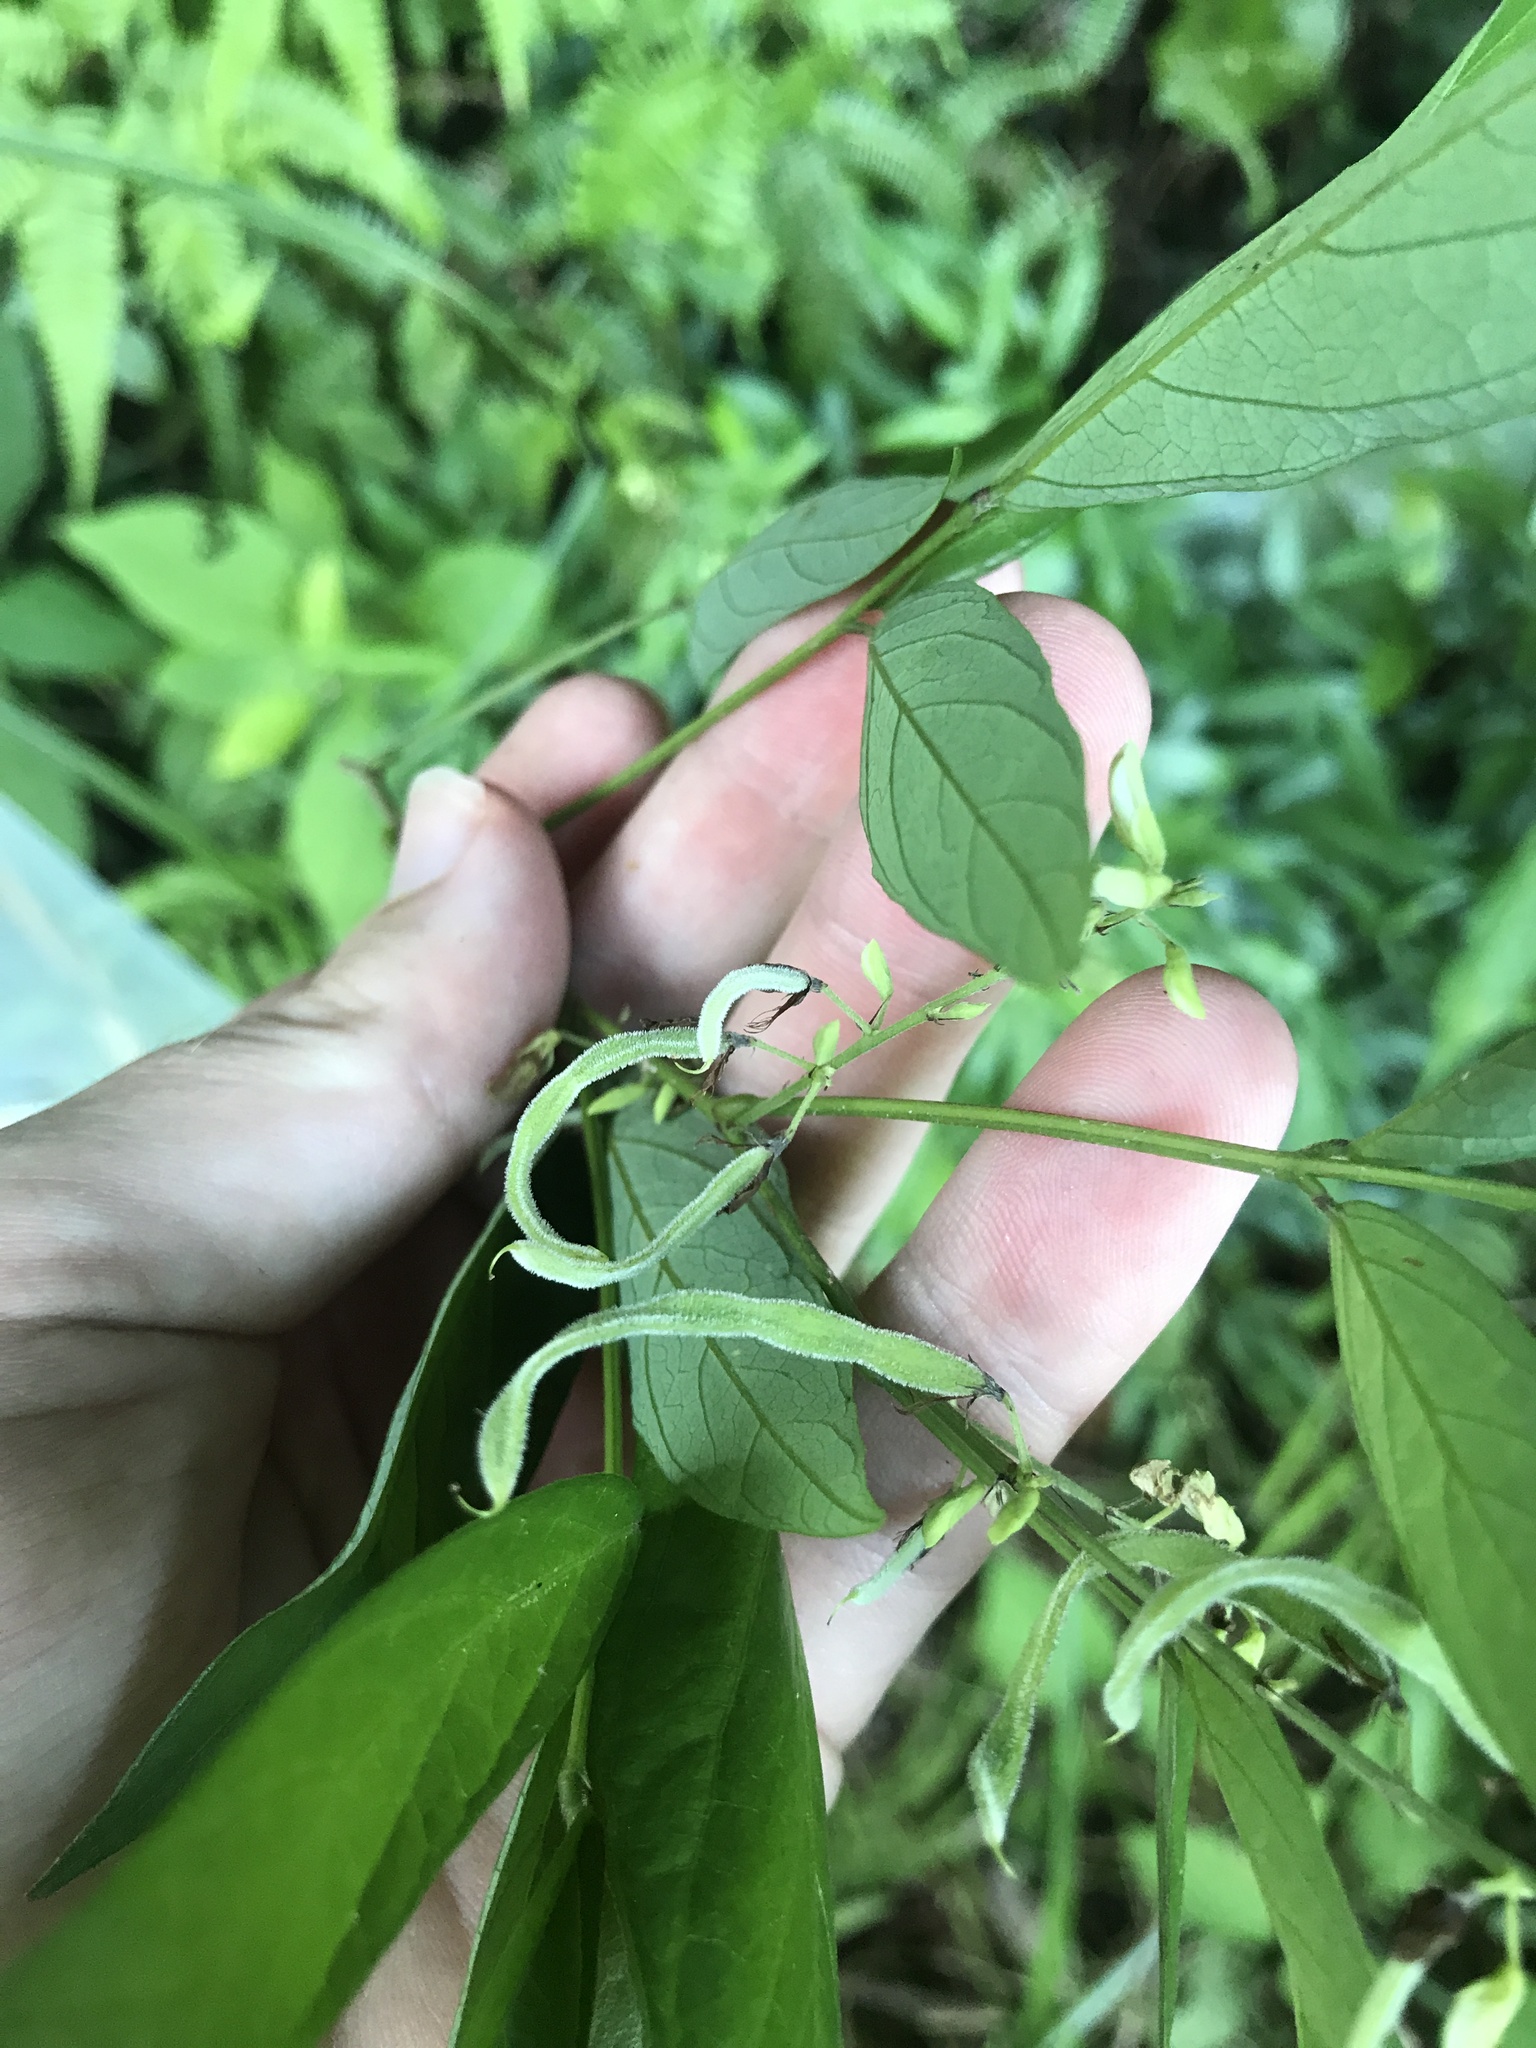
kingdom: Plantae
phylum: Tracheophyta
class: Magnoliopsida
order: Fabales
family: Fabaceae
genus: Ohwia
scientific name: Ohwia caudata
